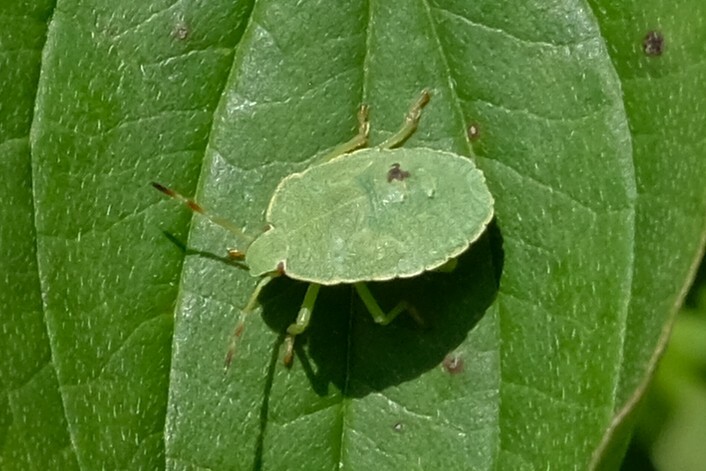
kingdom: Animalia
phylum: Arthropoda
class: Insecta
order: Hemiptera
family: Pentatomidae
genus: Palomena
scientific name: Palomena prasina
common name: Green shieldbug
